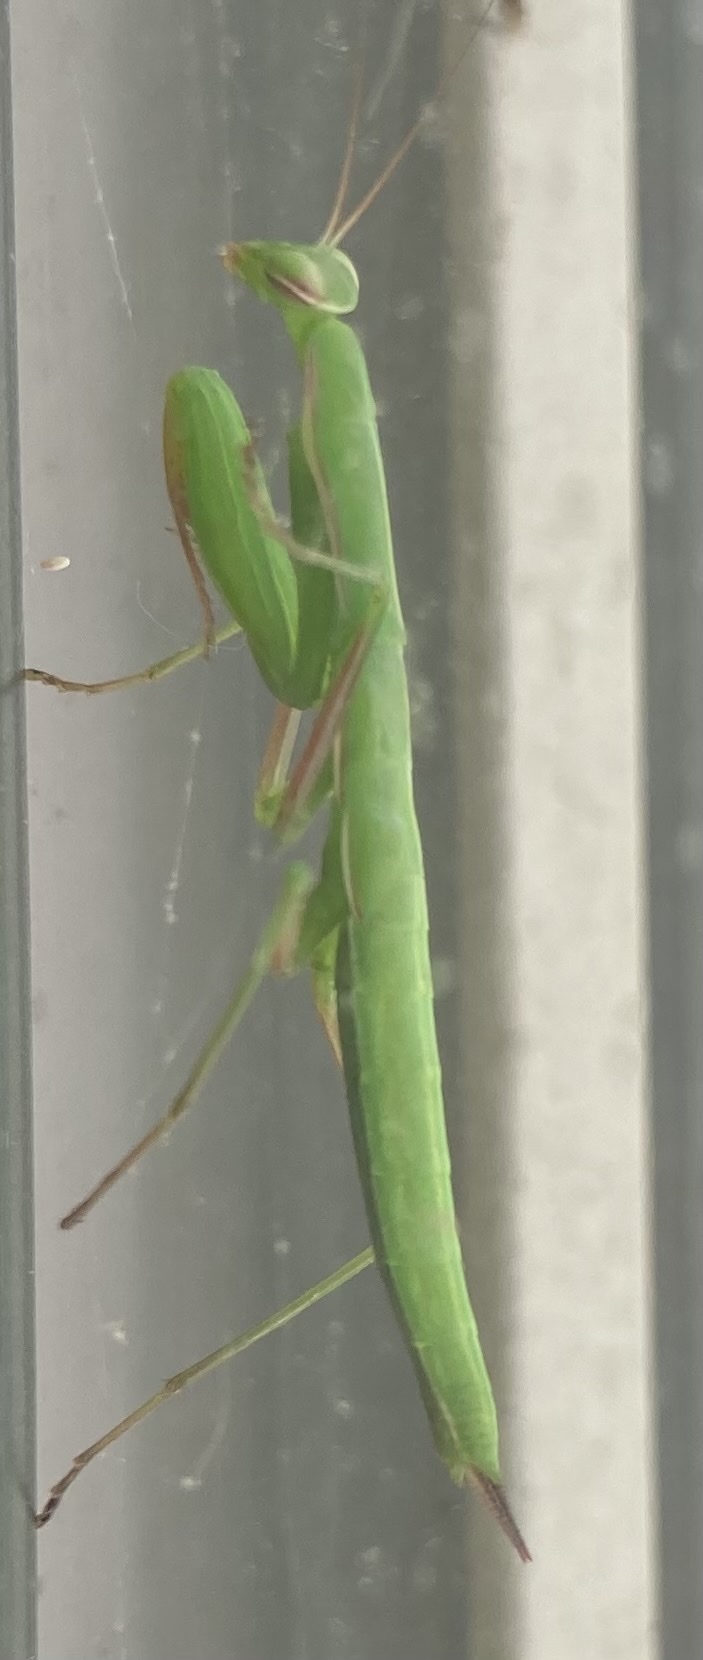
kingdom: Animalia
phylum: Arthropoda
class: Insecta
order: Mantodea
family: Mantidae
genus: Mantis
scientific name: Mantis religiosa
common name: Praying mantis
